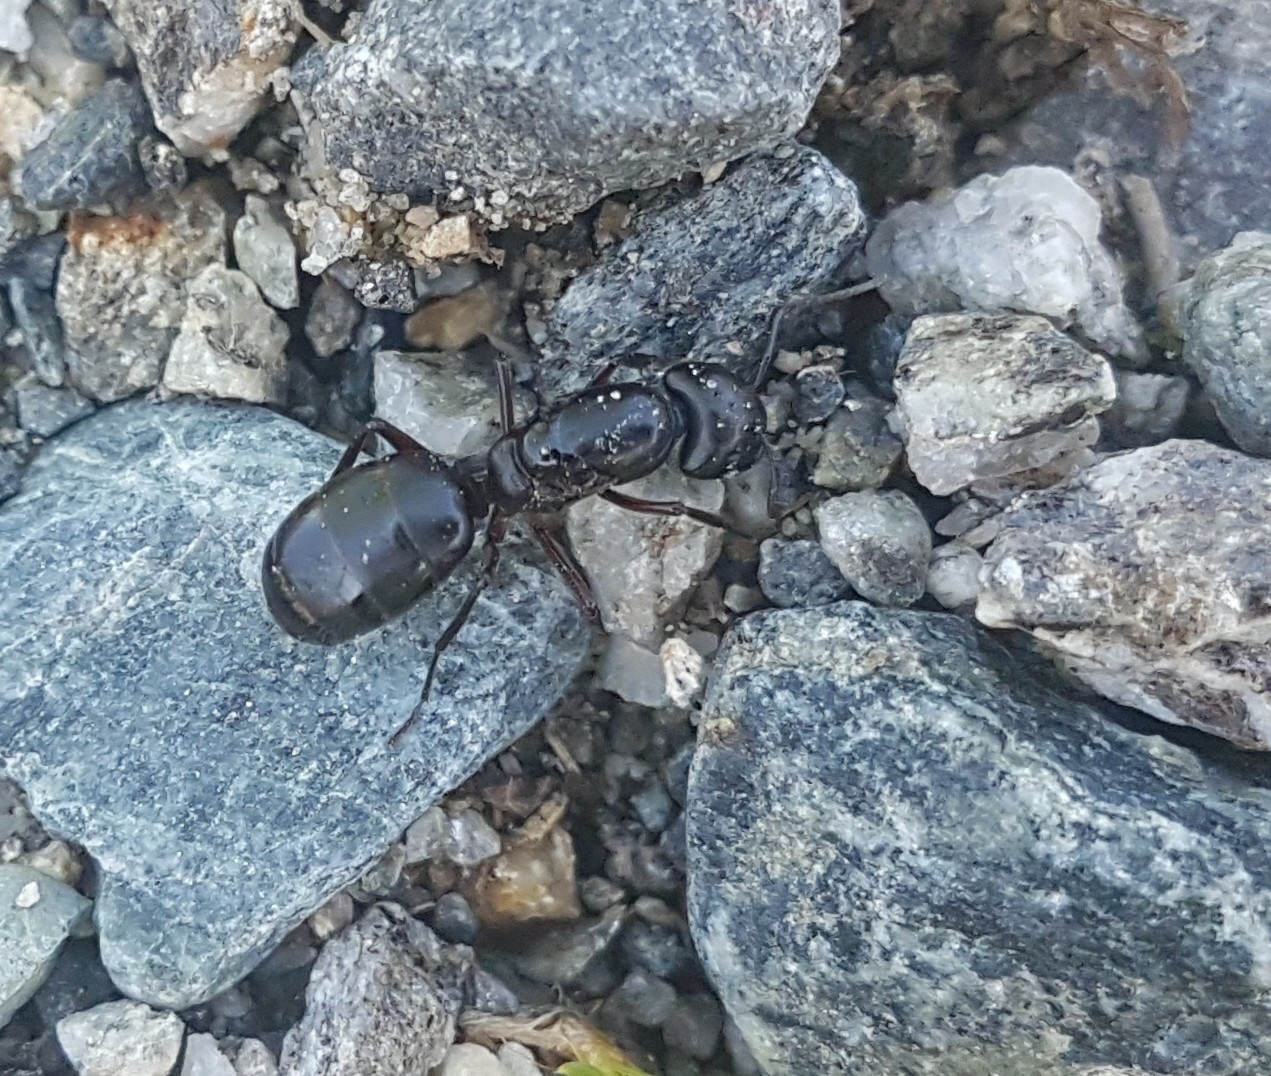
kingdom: Animalia
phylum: Arthropoda
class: Insecta
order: Hymenoptera
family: Formicidae
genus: Camponotus
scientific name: Camponotus herculeanus
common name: Hercules ant
